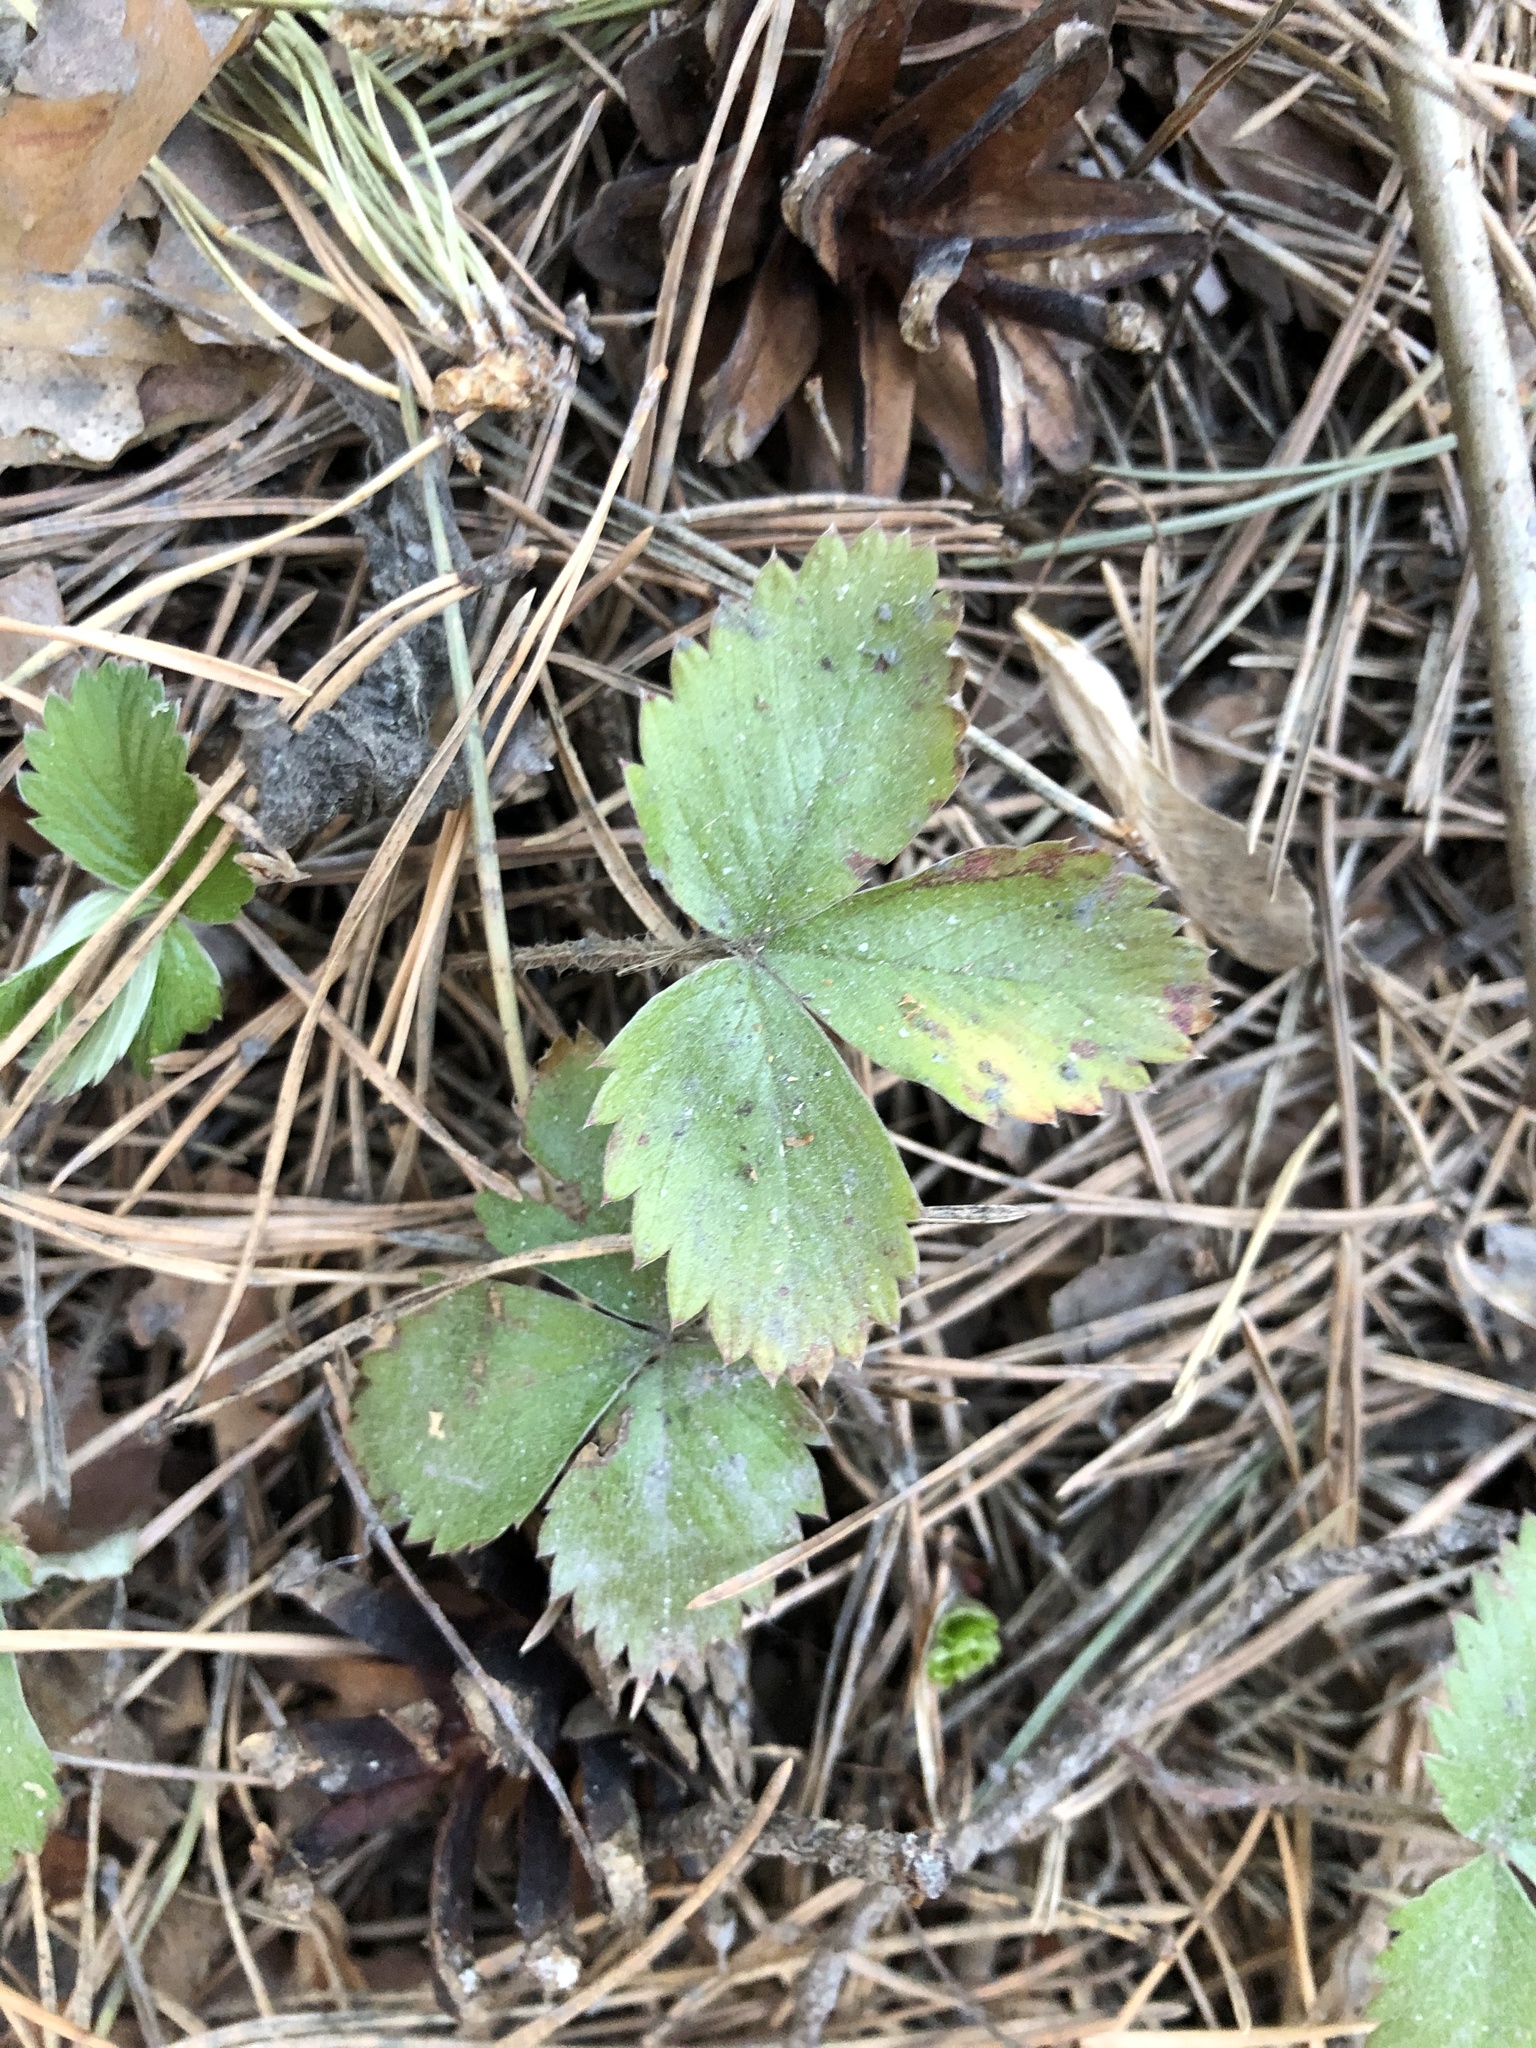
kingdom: Plantae
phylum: Tracheophyta
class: Magnoliopsida
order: Rosales
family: Rosaceae
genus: Fragaria
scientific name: Fragaria vesca
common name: Wild strawberry
